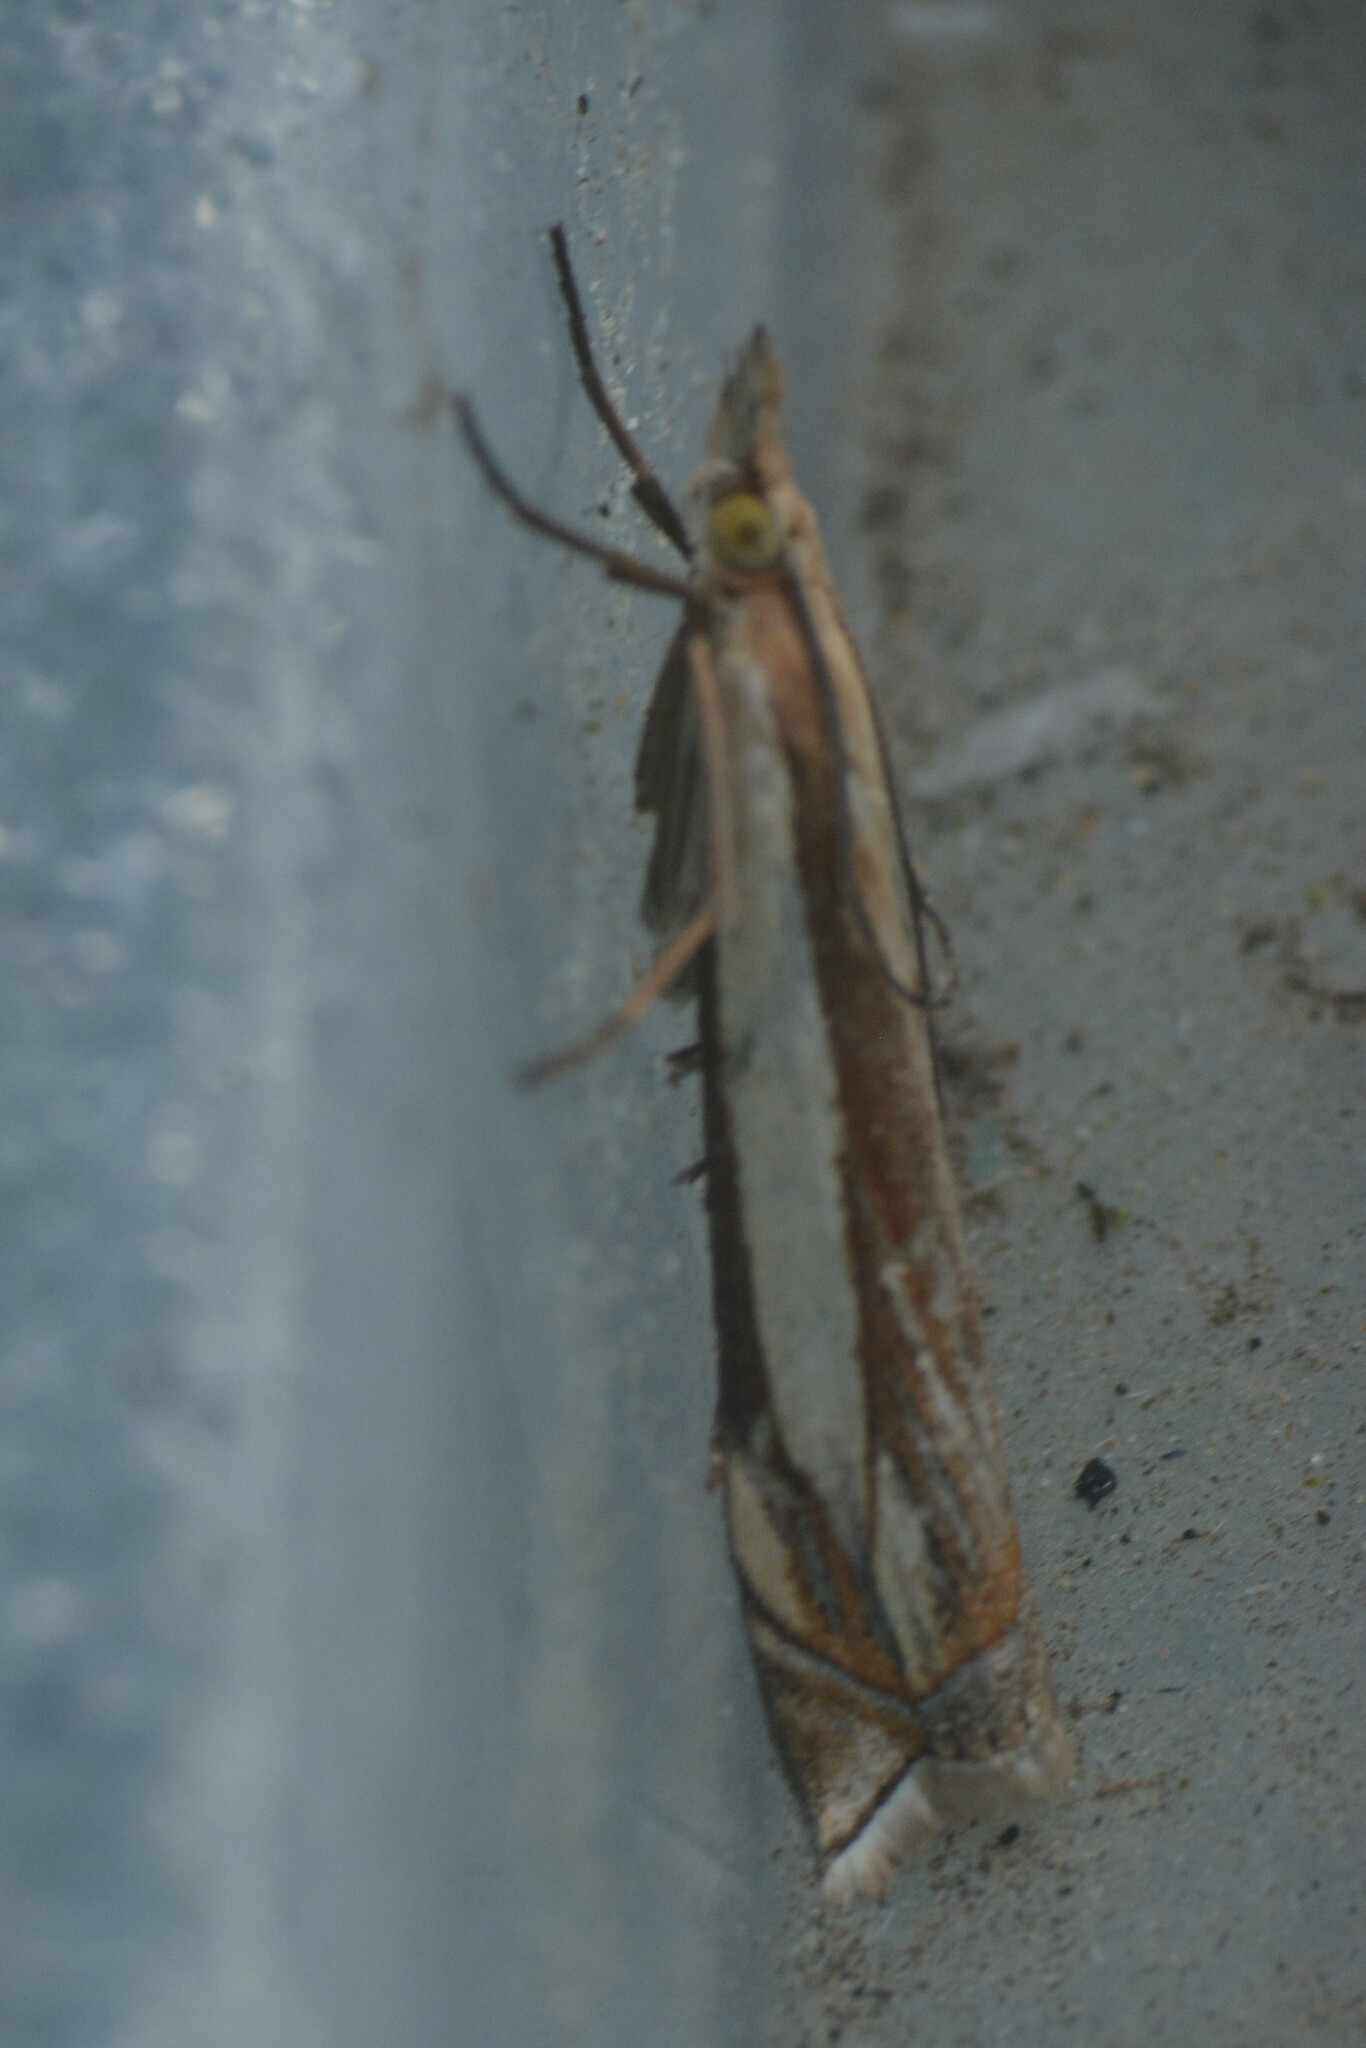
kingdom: Animalia
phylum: Arthropoda
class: Insecta
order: Lepidoptera
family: Crambidae
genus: Crambus
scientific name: Crambus pascuella
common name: Inlaid grass-veneer
